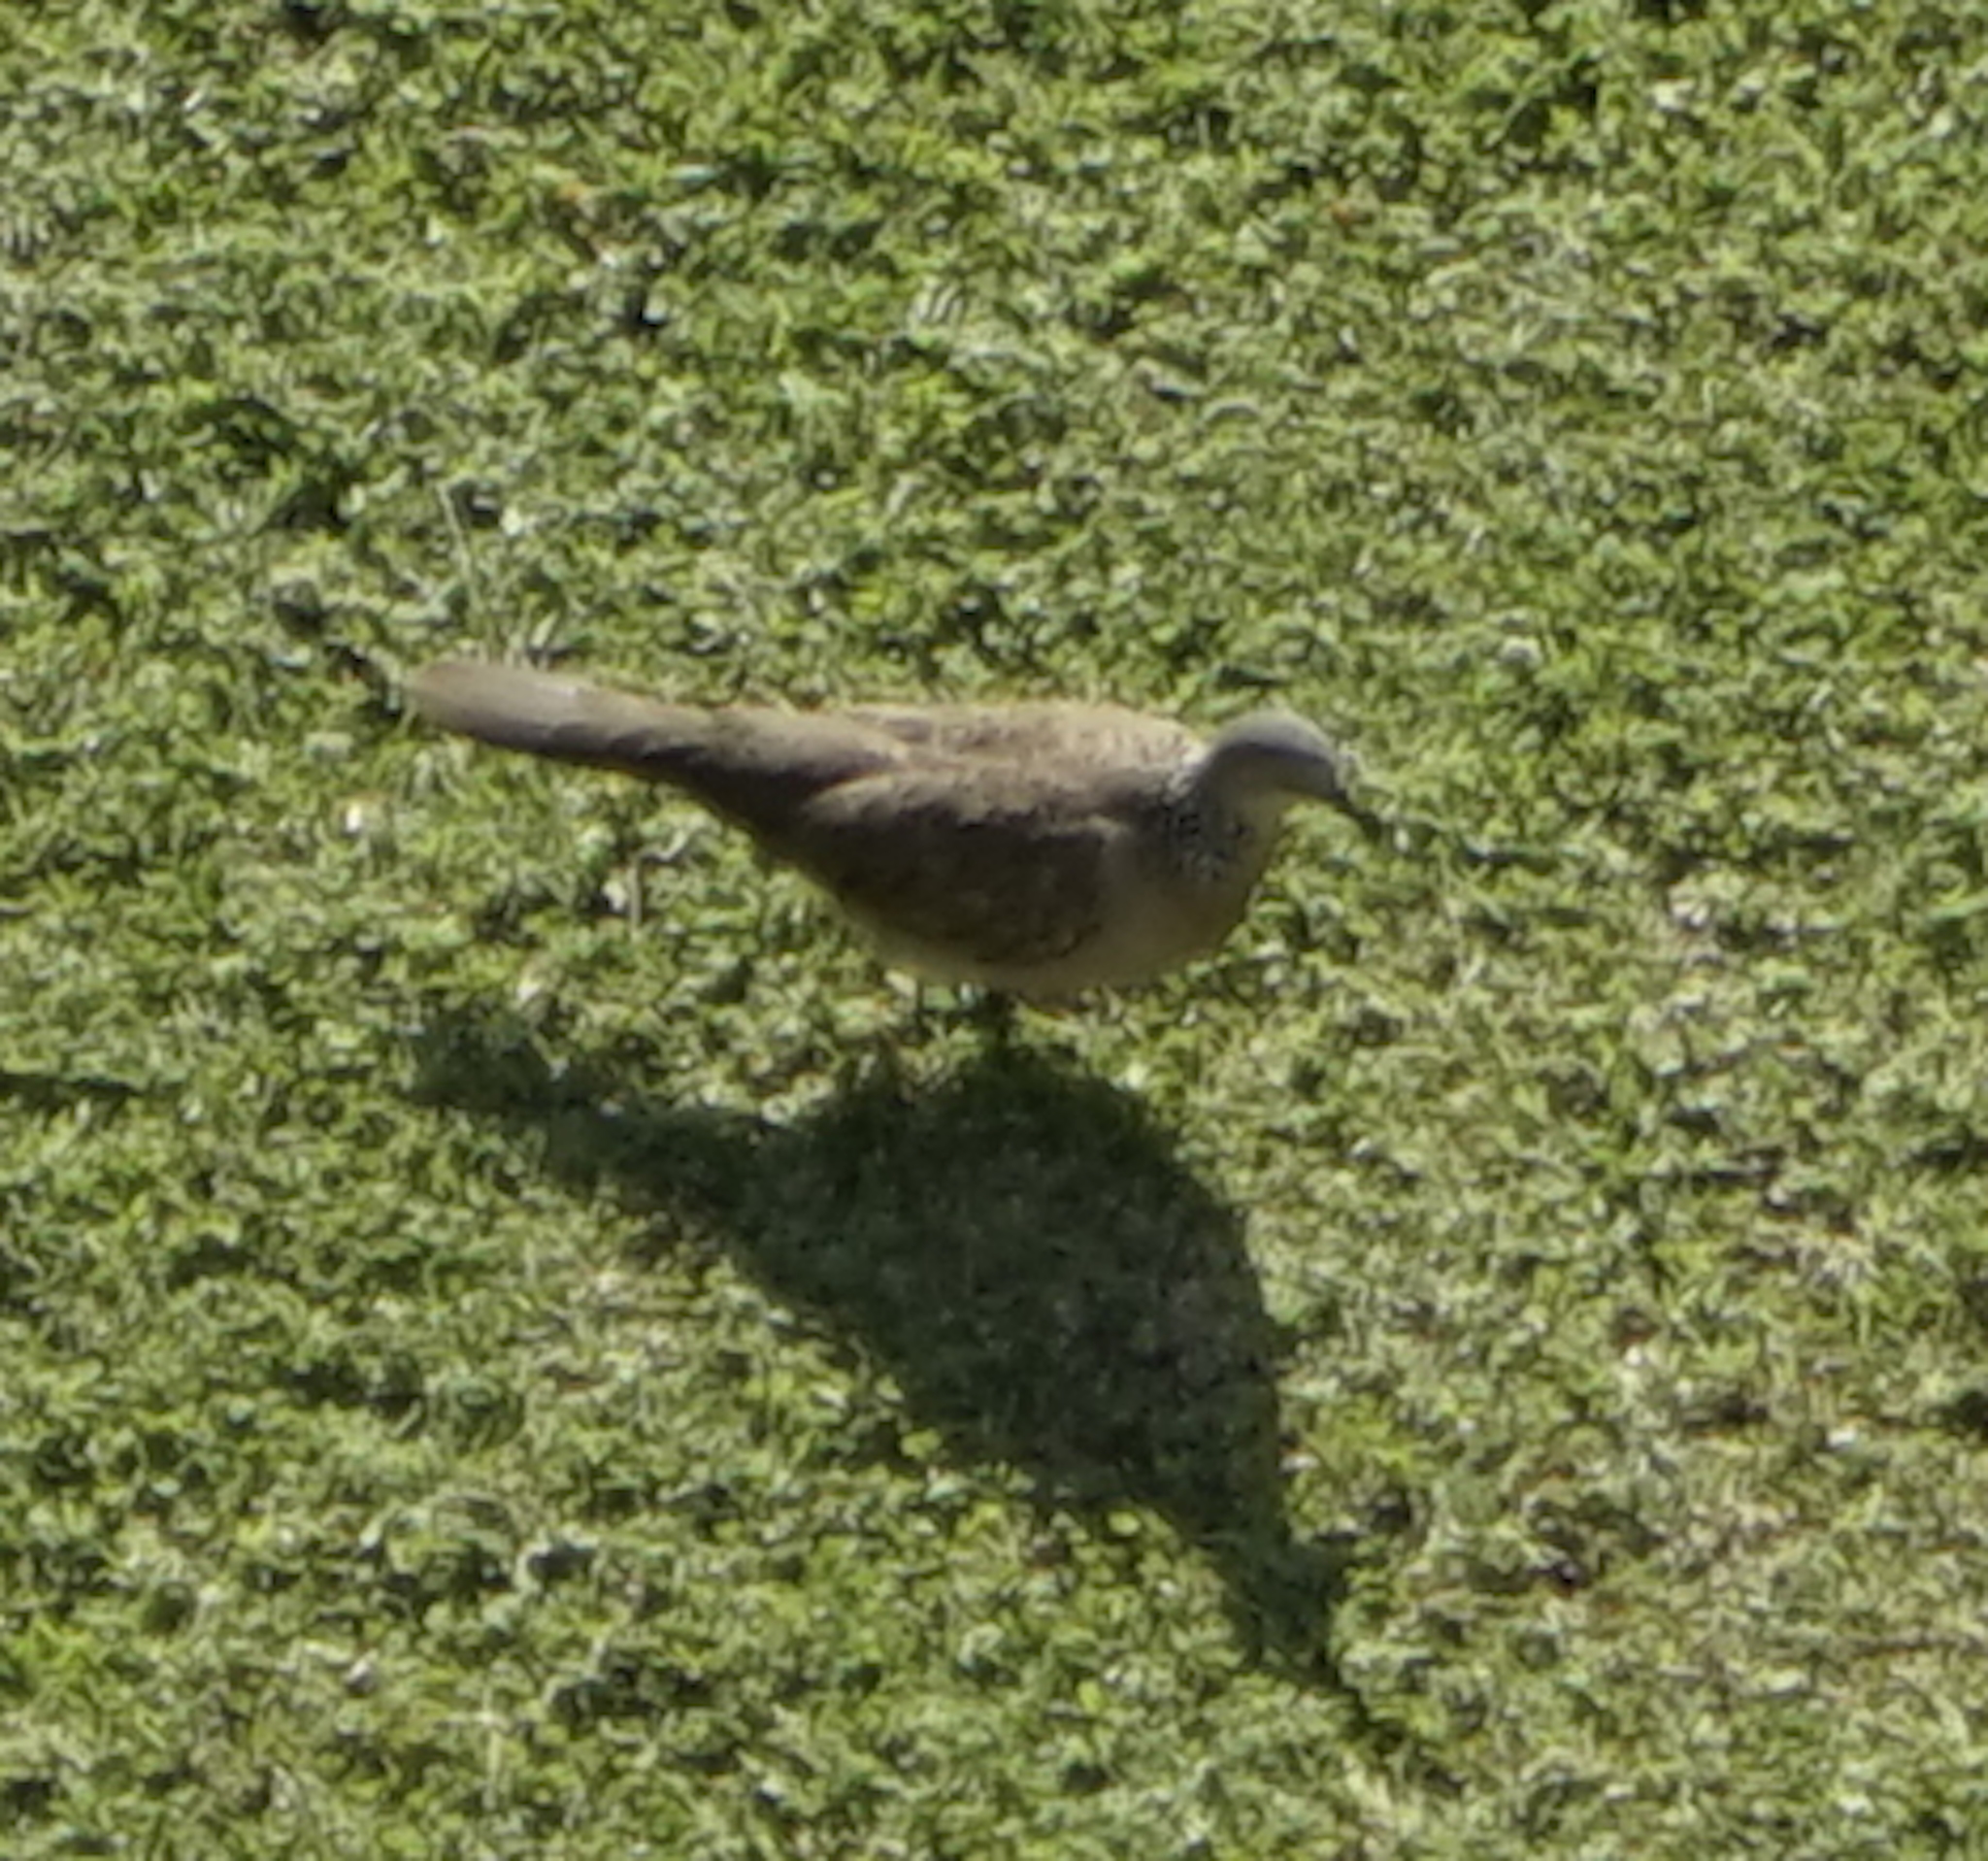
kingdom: Animalia
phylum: Chordata
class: Aves
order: Columbiformes
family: Columbidae
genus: Spilopelia
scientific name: Spilopelia chinensis
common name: Spotted dove
